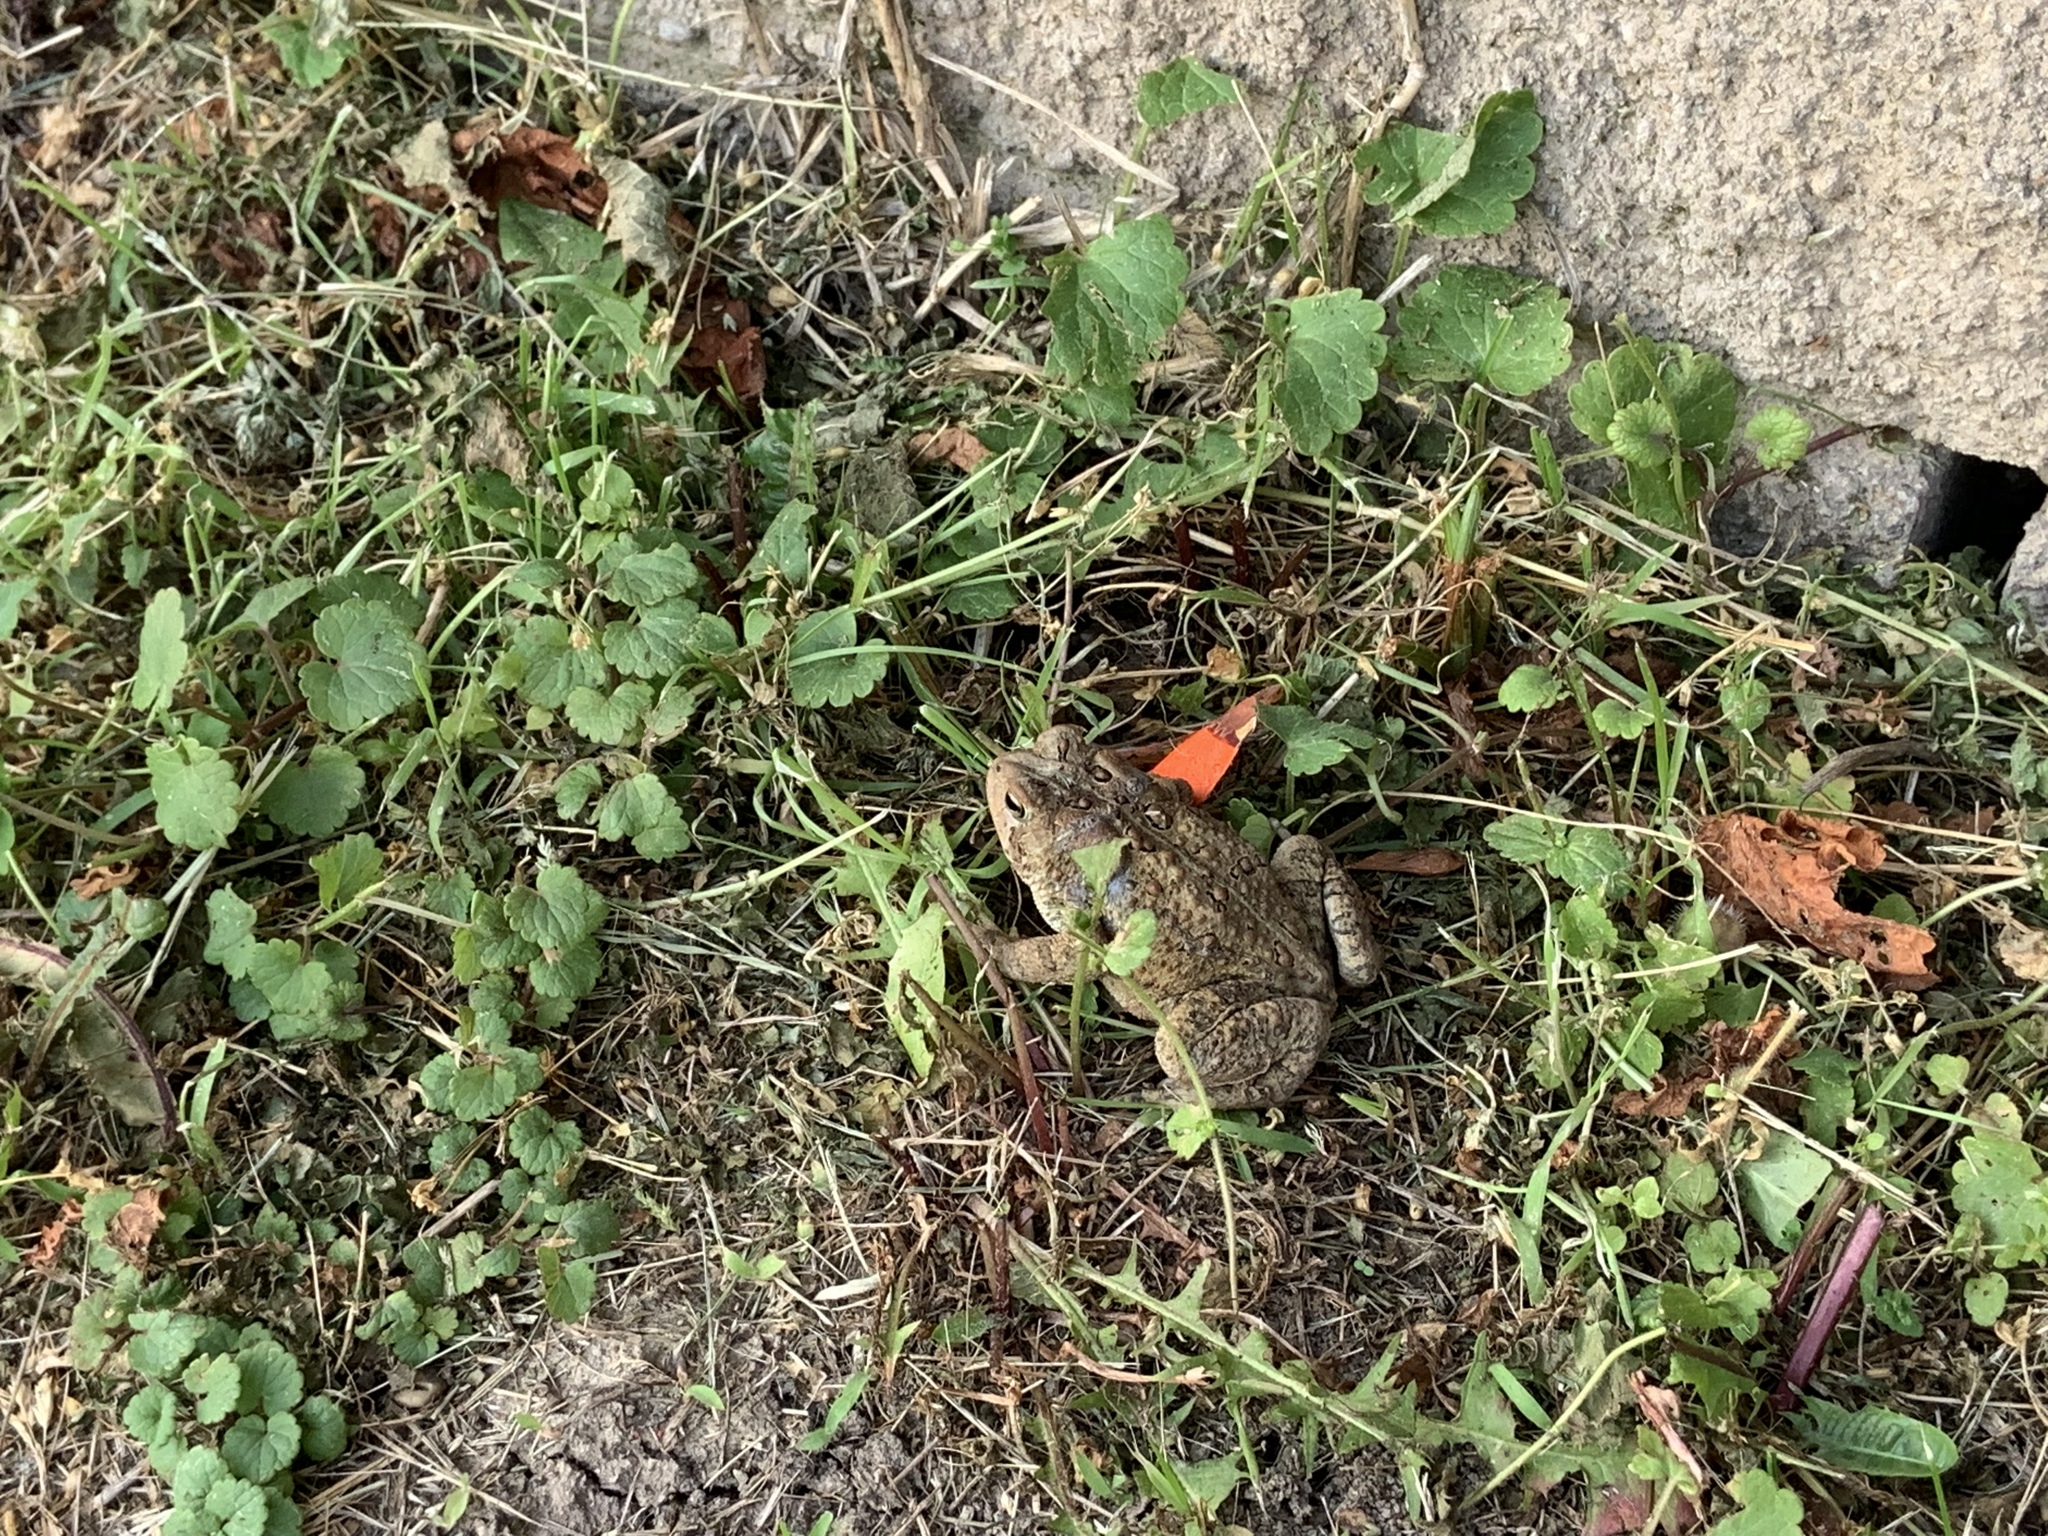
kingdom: Animalia
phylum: Chordata
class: Amphibia
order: Anura
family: Bufonidae
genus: Anaxyrus
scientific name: Anaxyrus americanus
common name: American toad
